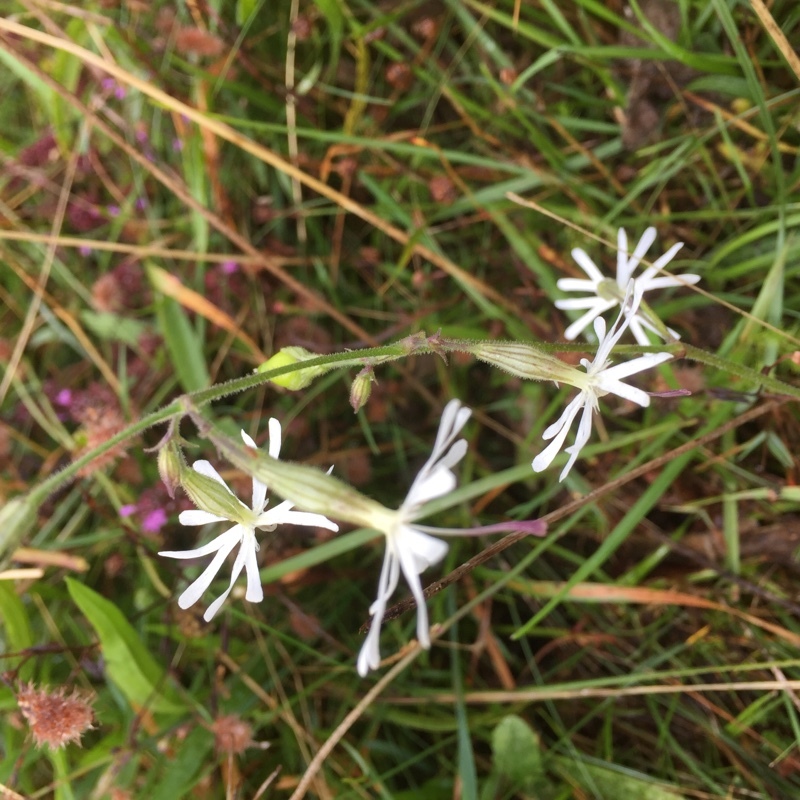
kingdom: Plantae
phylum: Tracheophyta
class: Magnoliopsida
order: Caryophyllales
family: Caryophyllaceae
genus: Silene
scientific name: Silene nutans
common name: Nottingham catchfly
